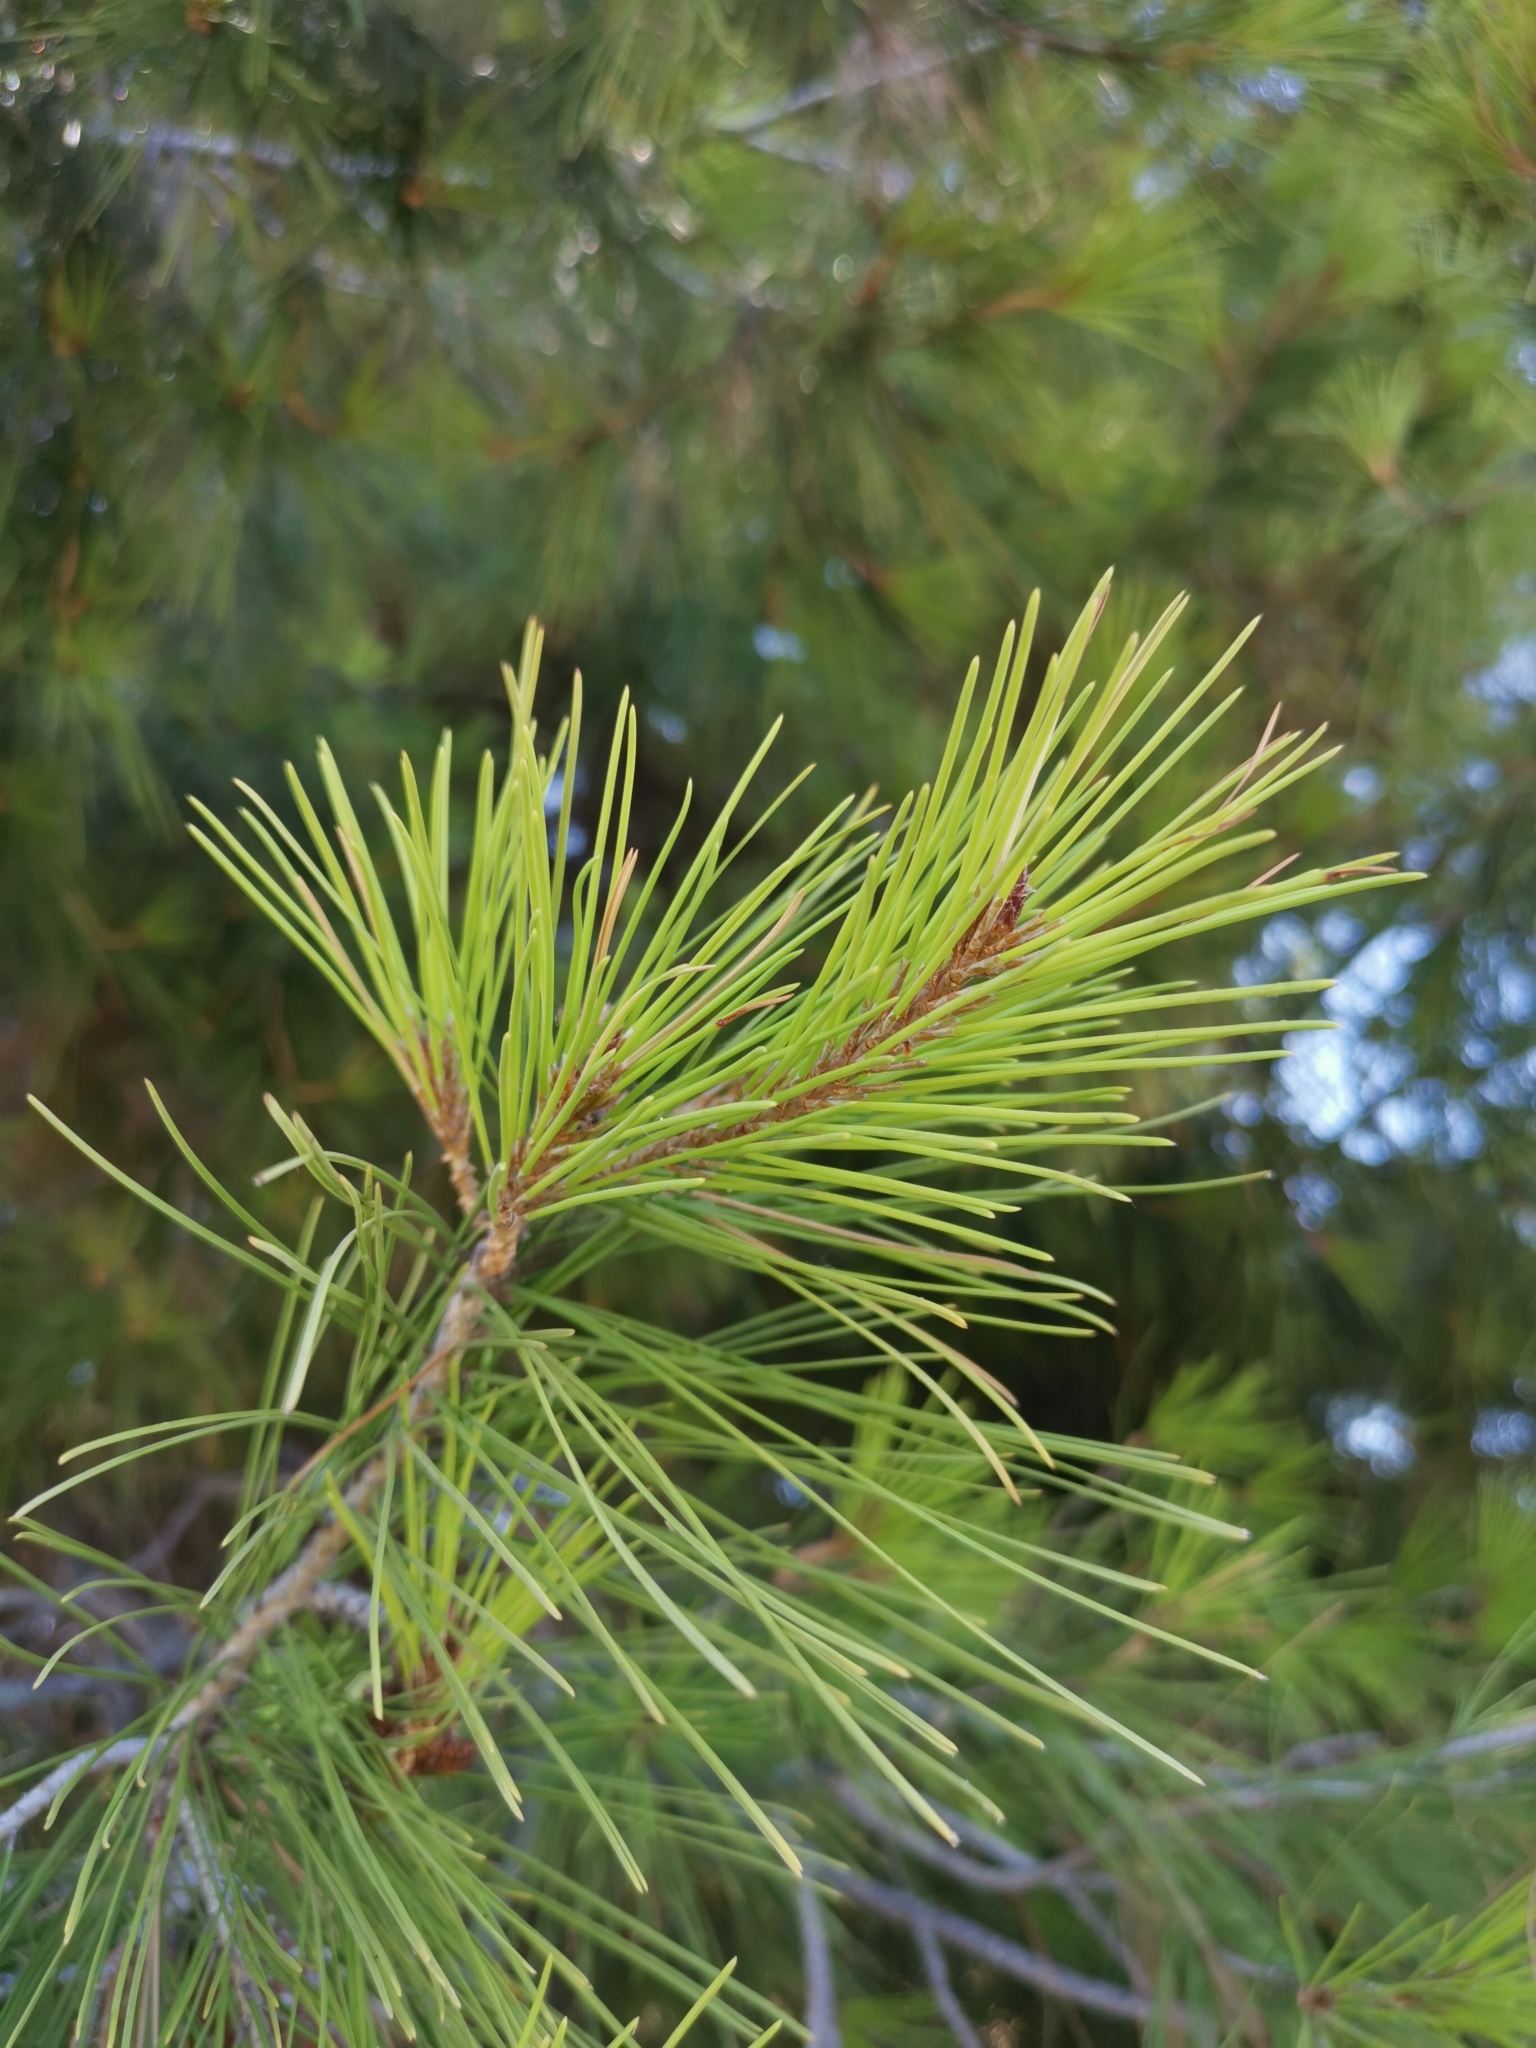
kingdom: Plantae
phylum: Tracheophyta
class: Pinopsida
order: Pinales
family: Pinaceae
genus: Pinus
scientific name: Pinus halepensis
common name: Aleppo pine
